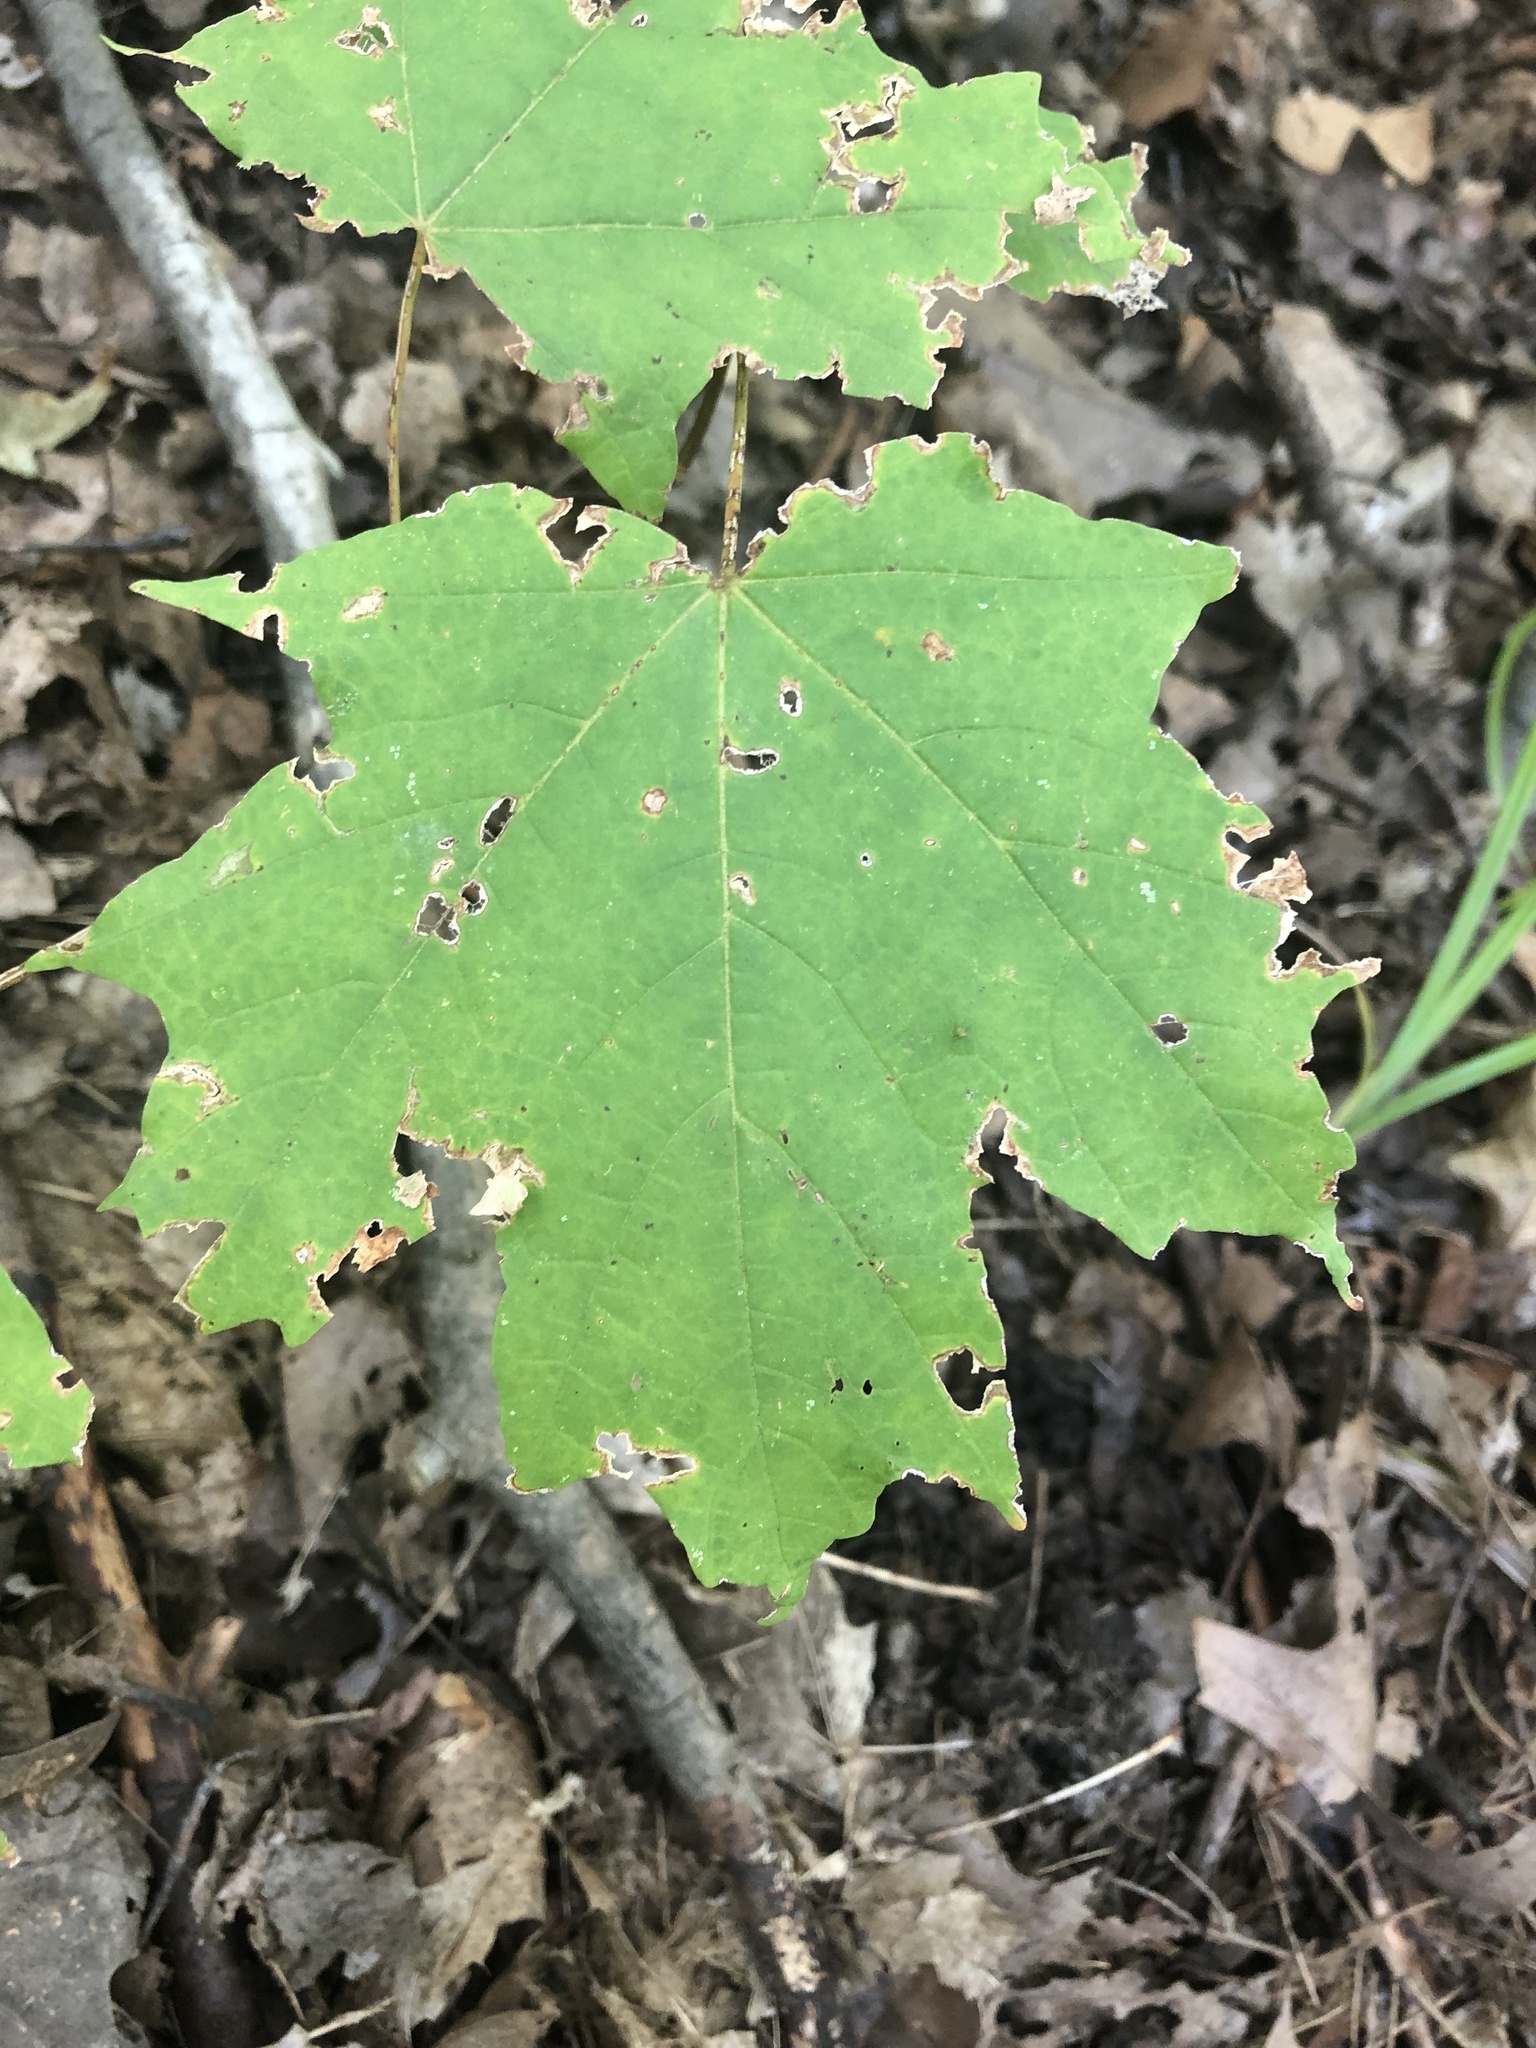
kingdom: Plantae
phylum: Tracheophyta
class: Magnoliopsida
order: Sapindales
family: Sapindaceae
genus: Acer
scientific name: Acer saccharum
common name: Sugar maple
